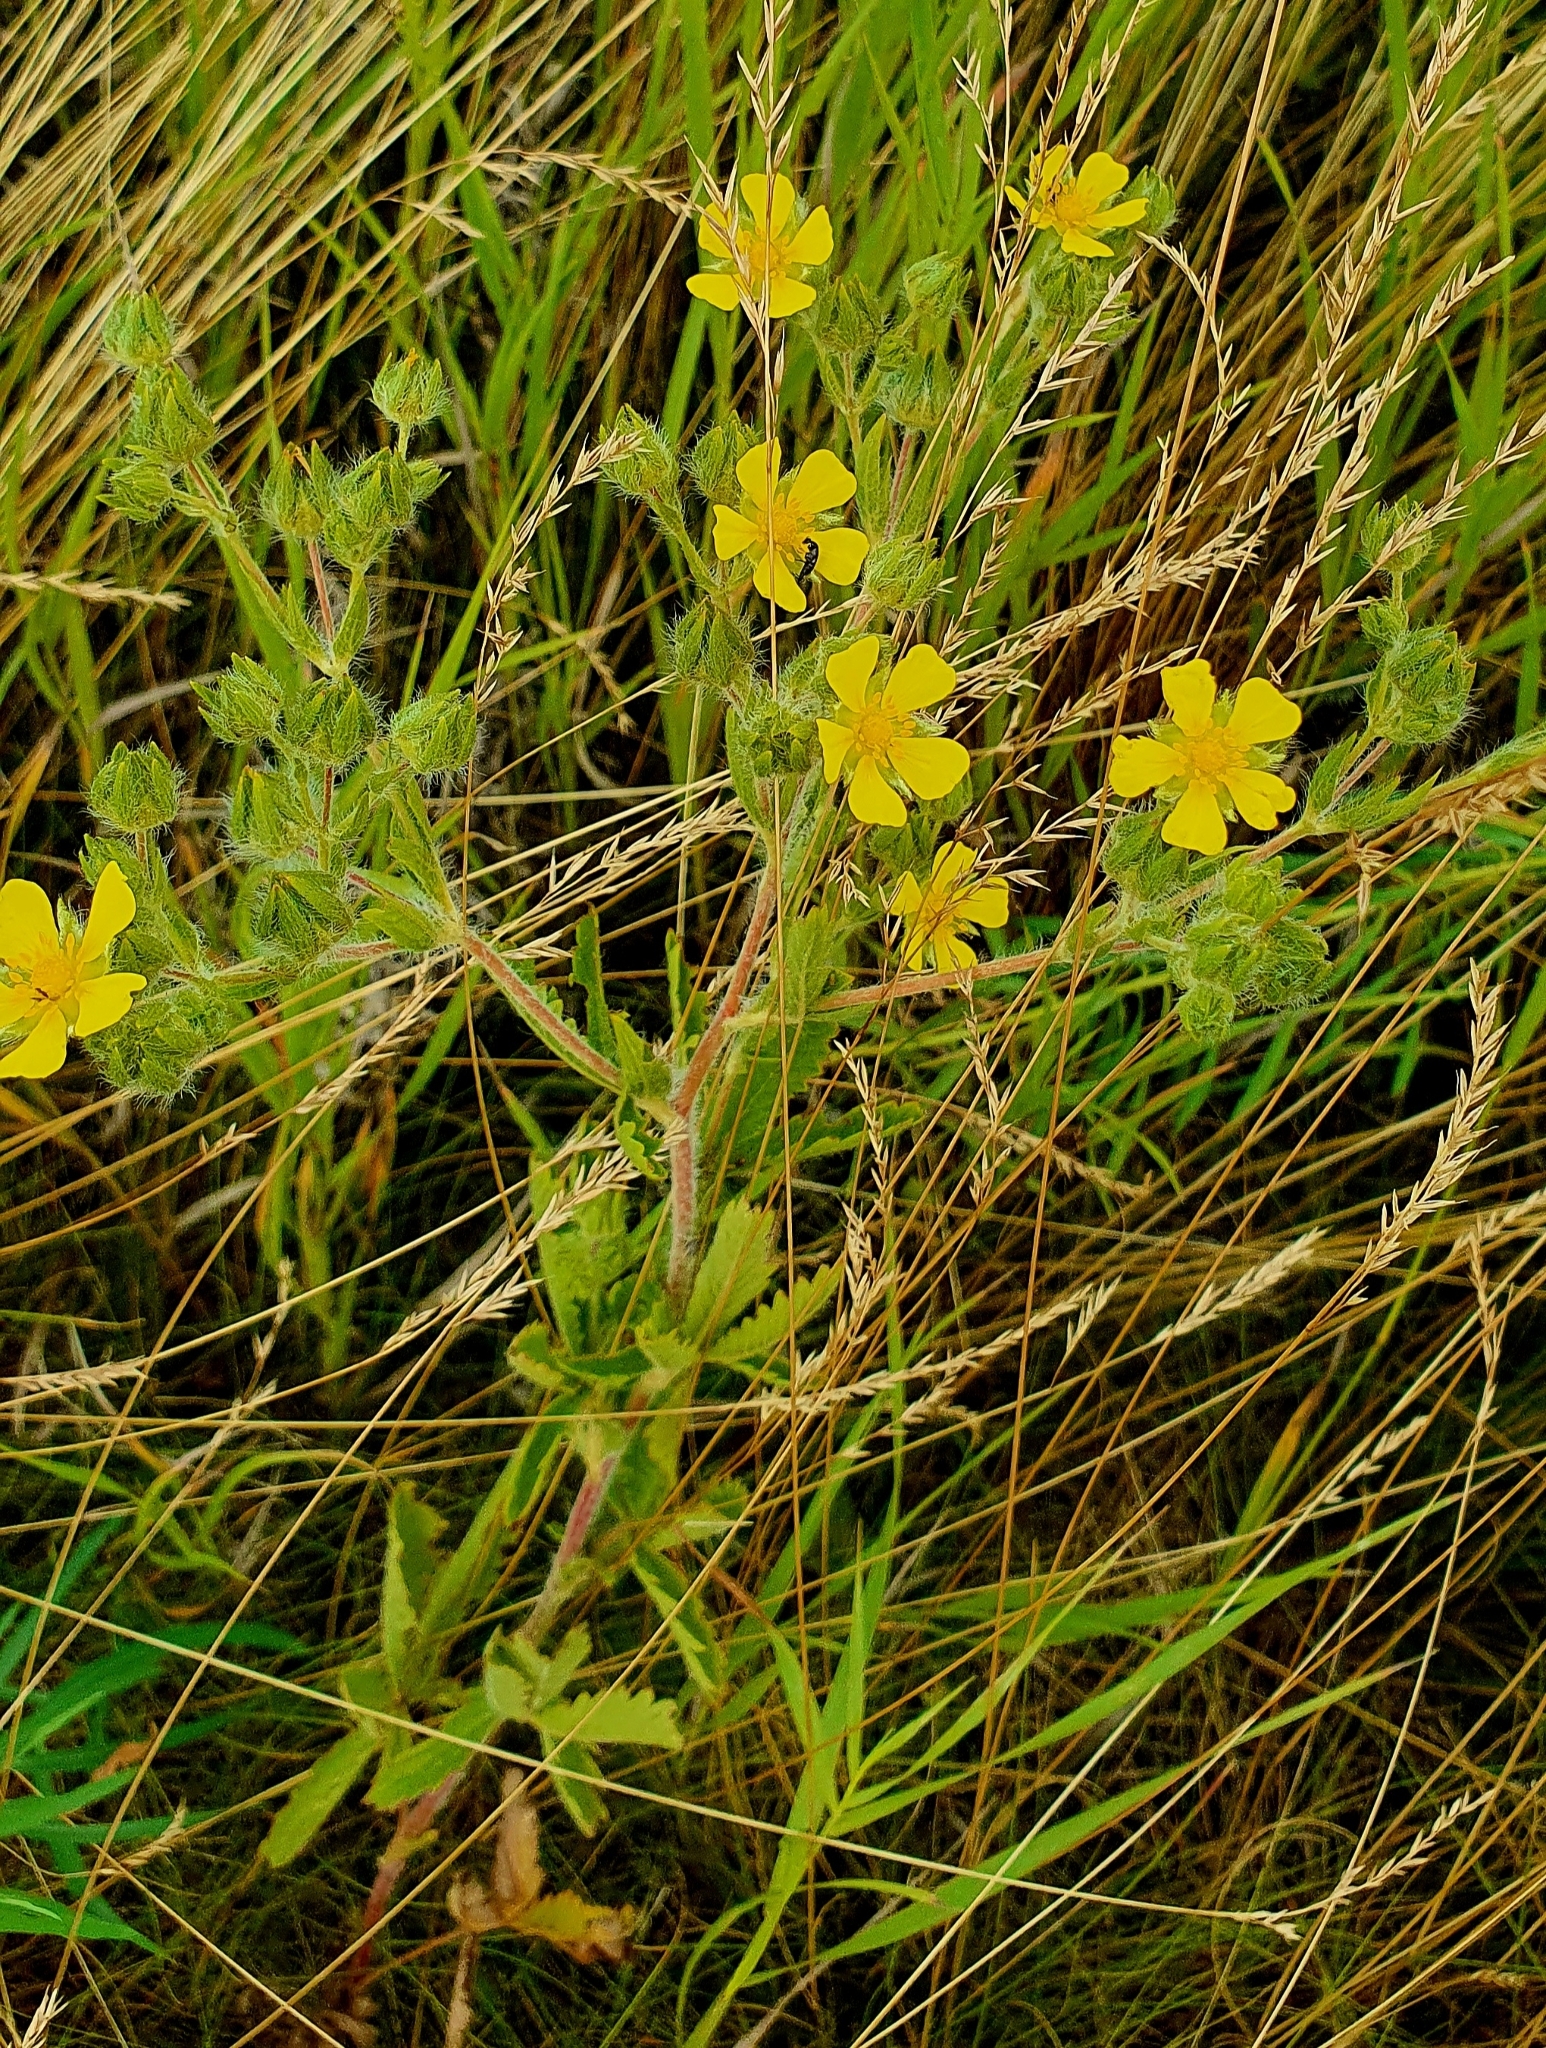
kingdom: Plantae
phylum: Tracheophyta
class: Magnoliopsida
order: Rosales
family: Rosaceae
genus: Potentilla
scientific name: Potentilla recta
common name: Sulphur cinquefoil
